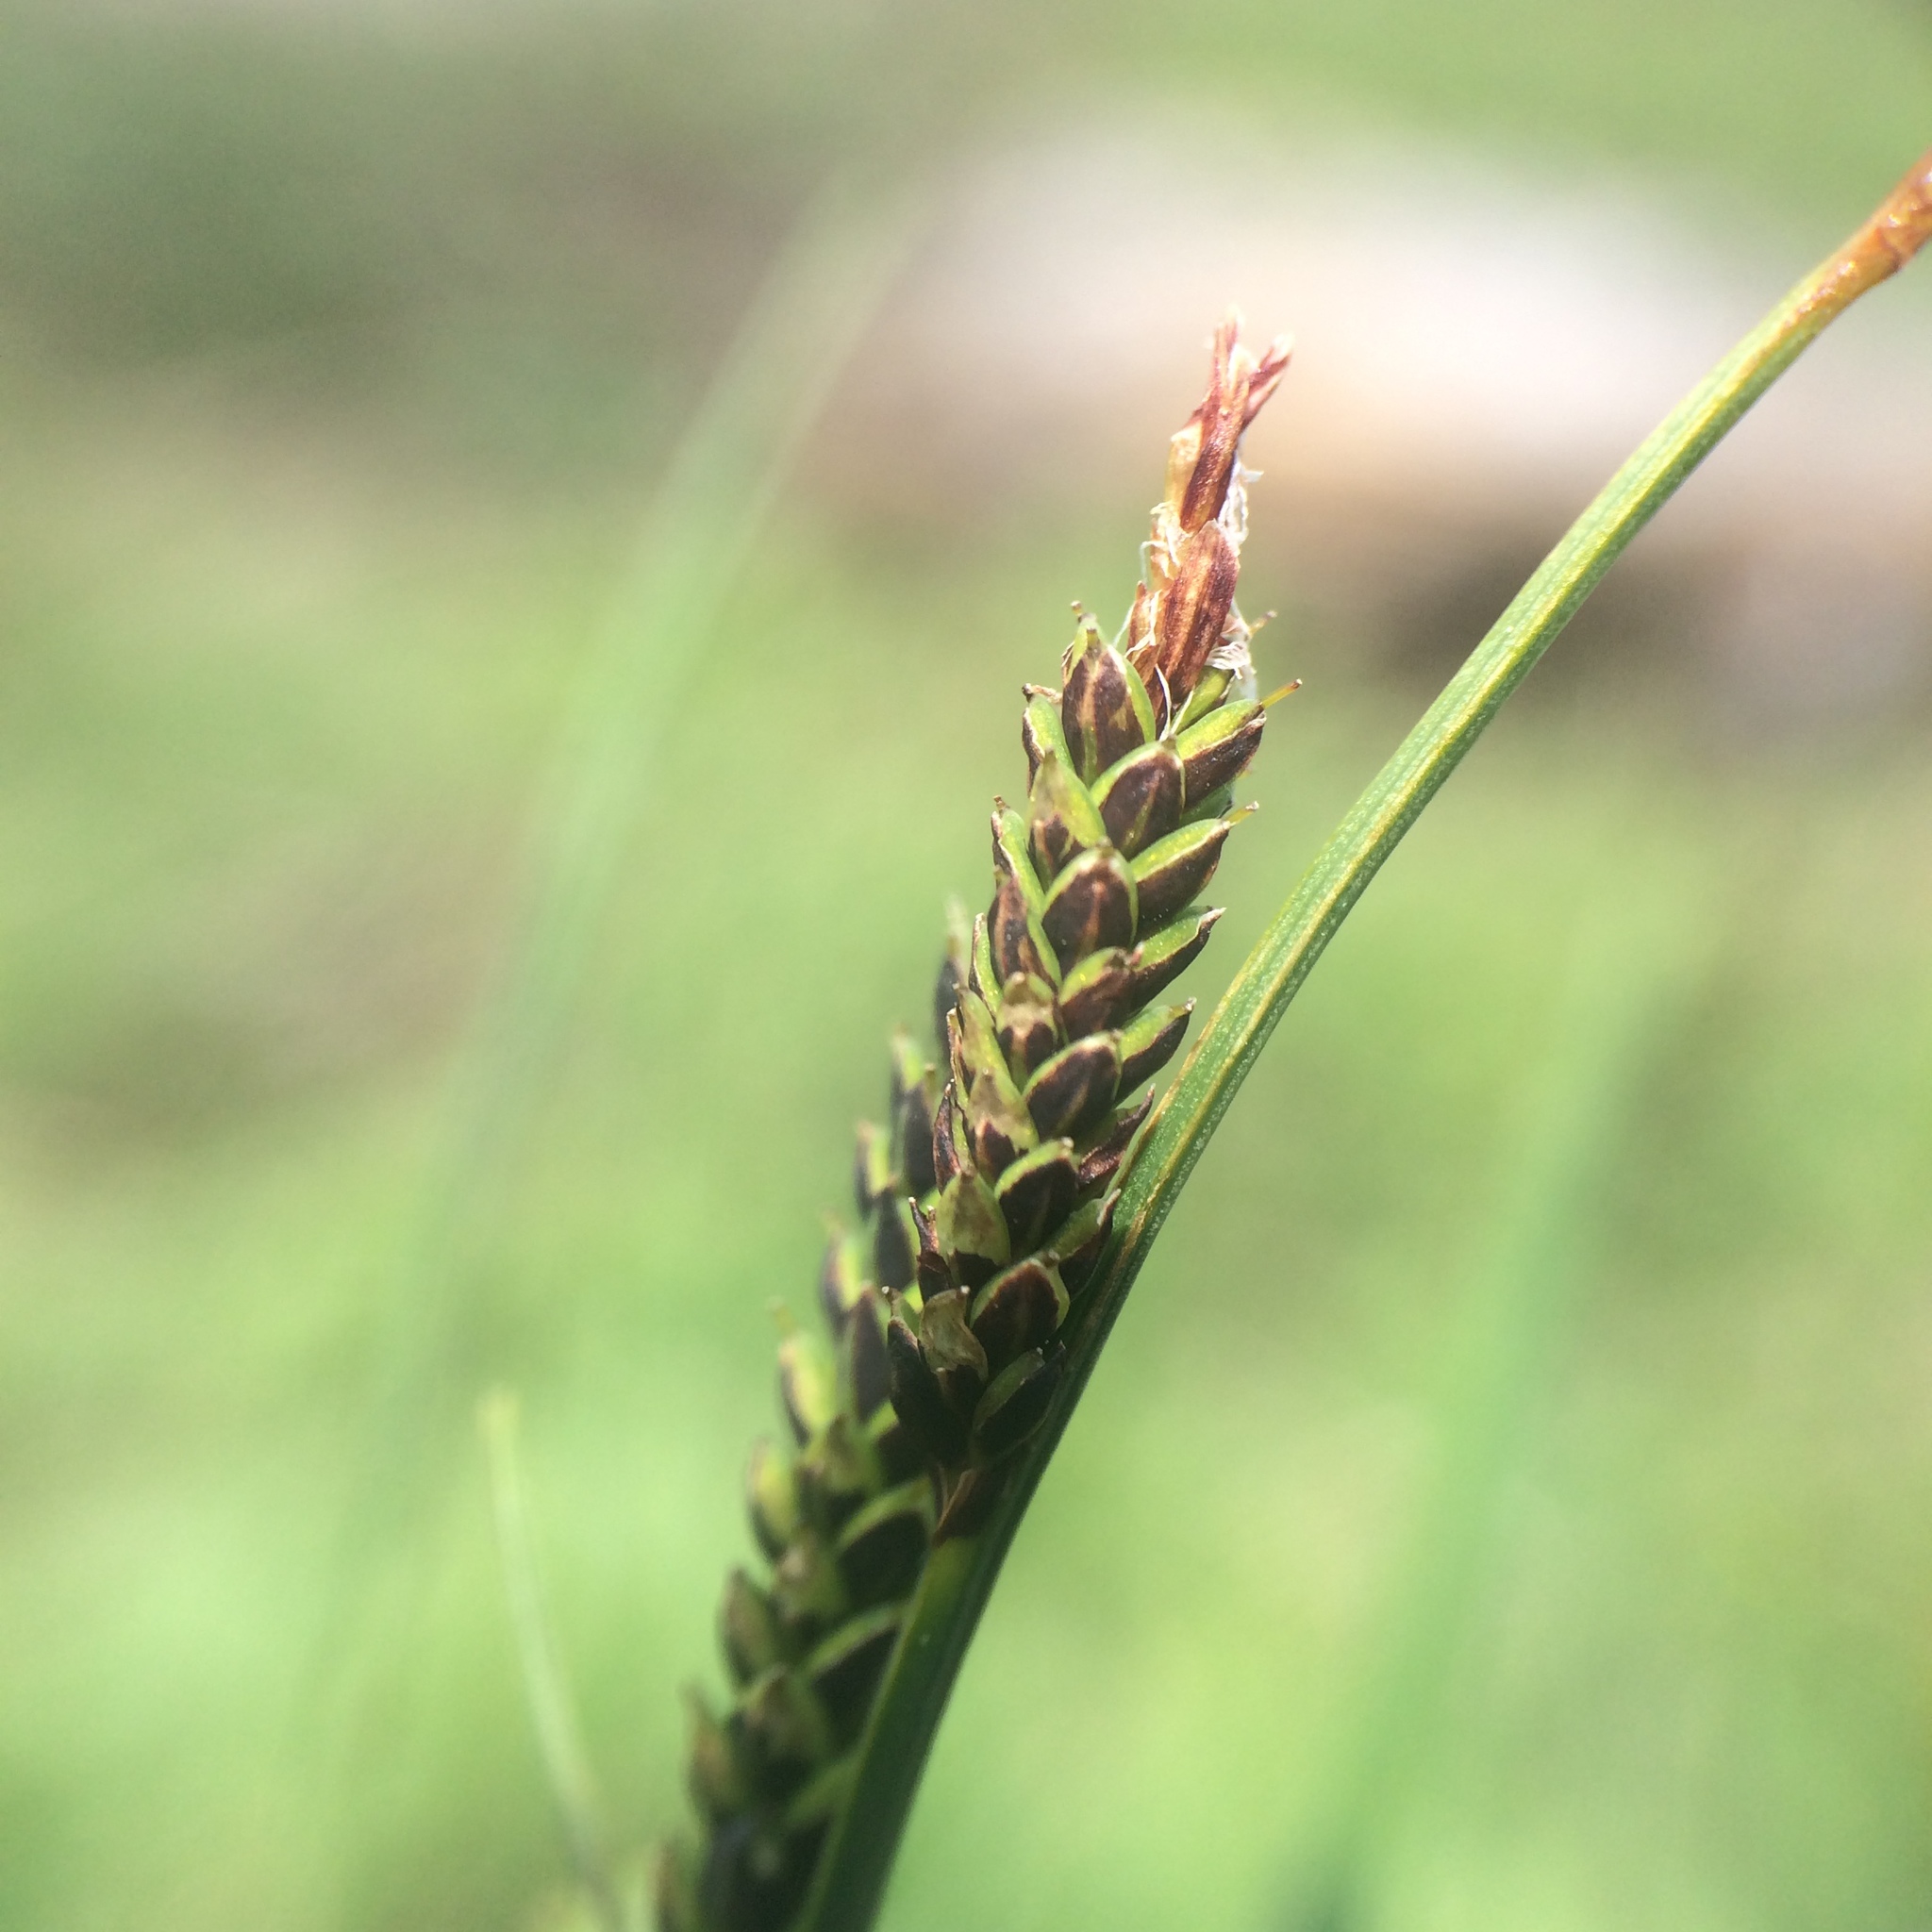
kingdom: Plantae
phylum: Tracheophyta
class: Liliopsida
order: Poales
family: Cyperaceae
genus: Carex
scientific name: Carex bigelowii
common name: Stiff sedge
